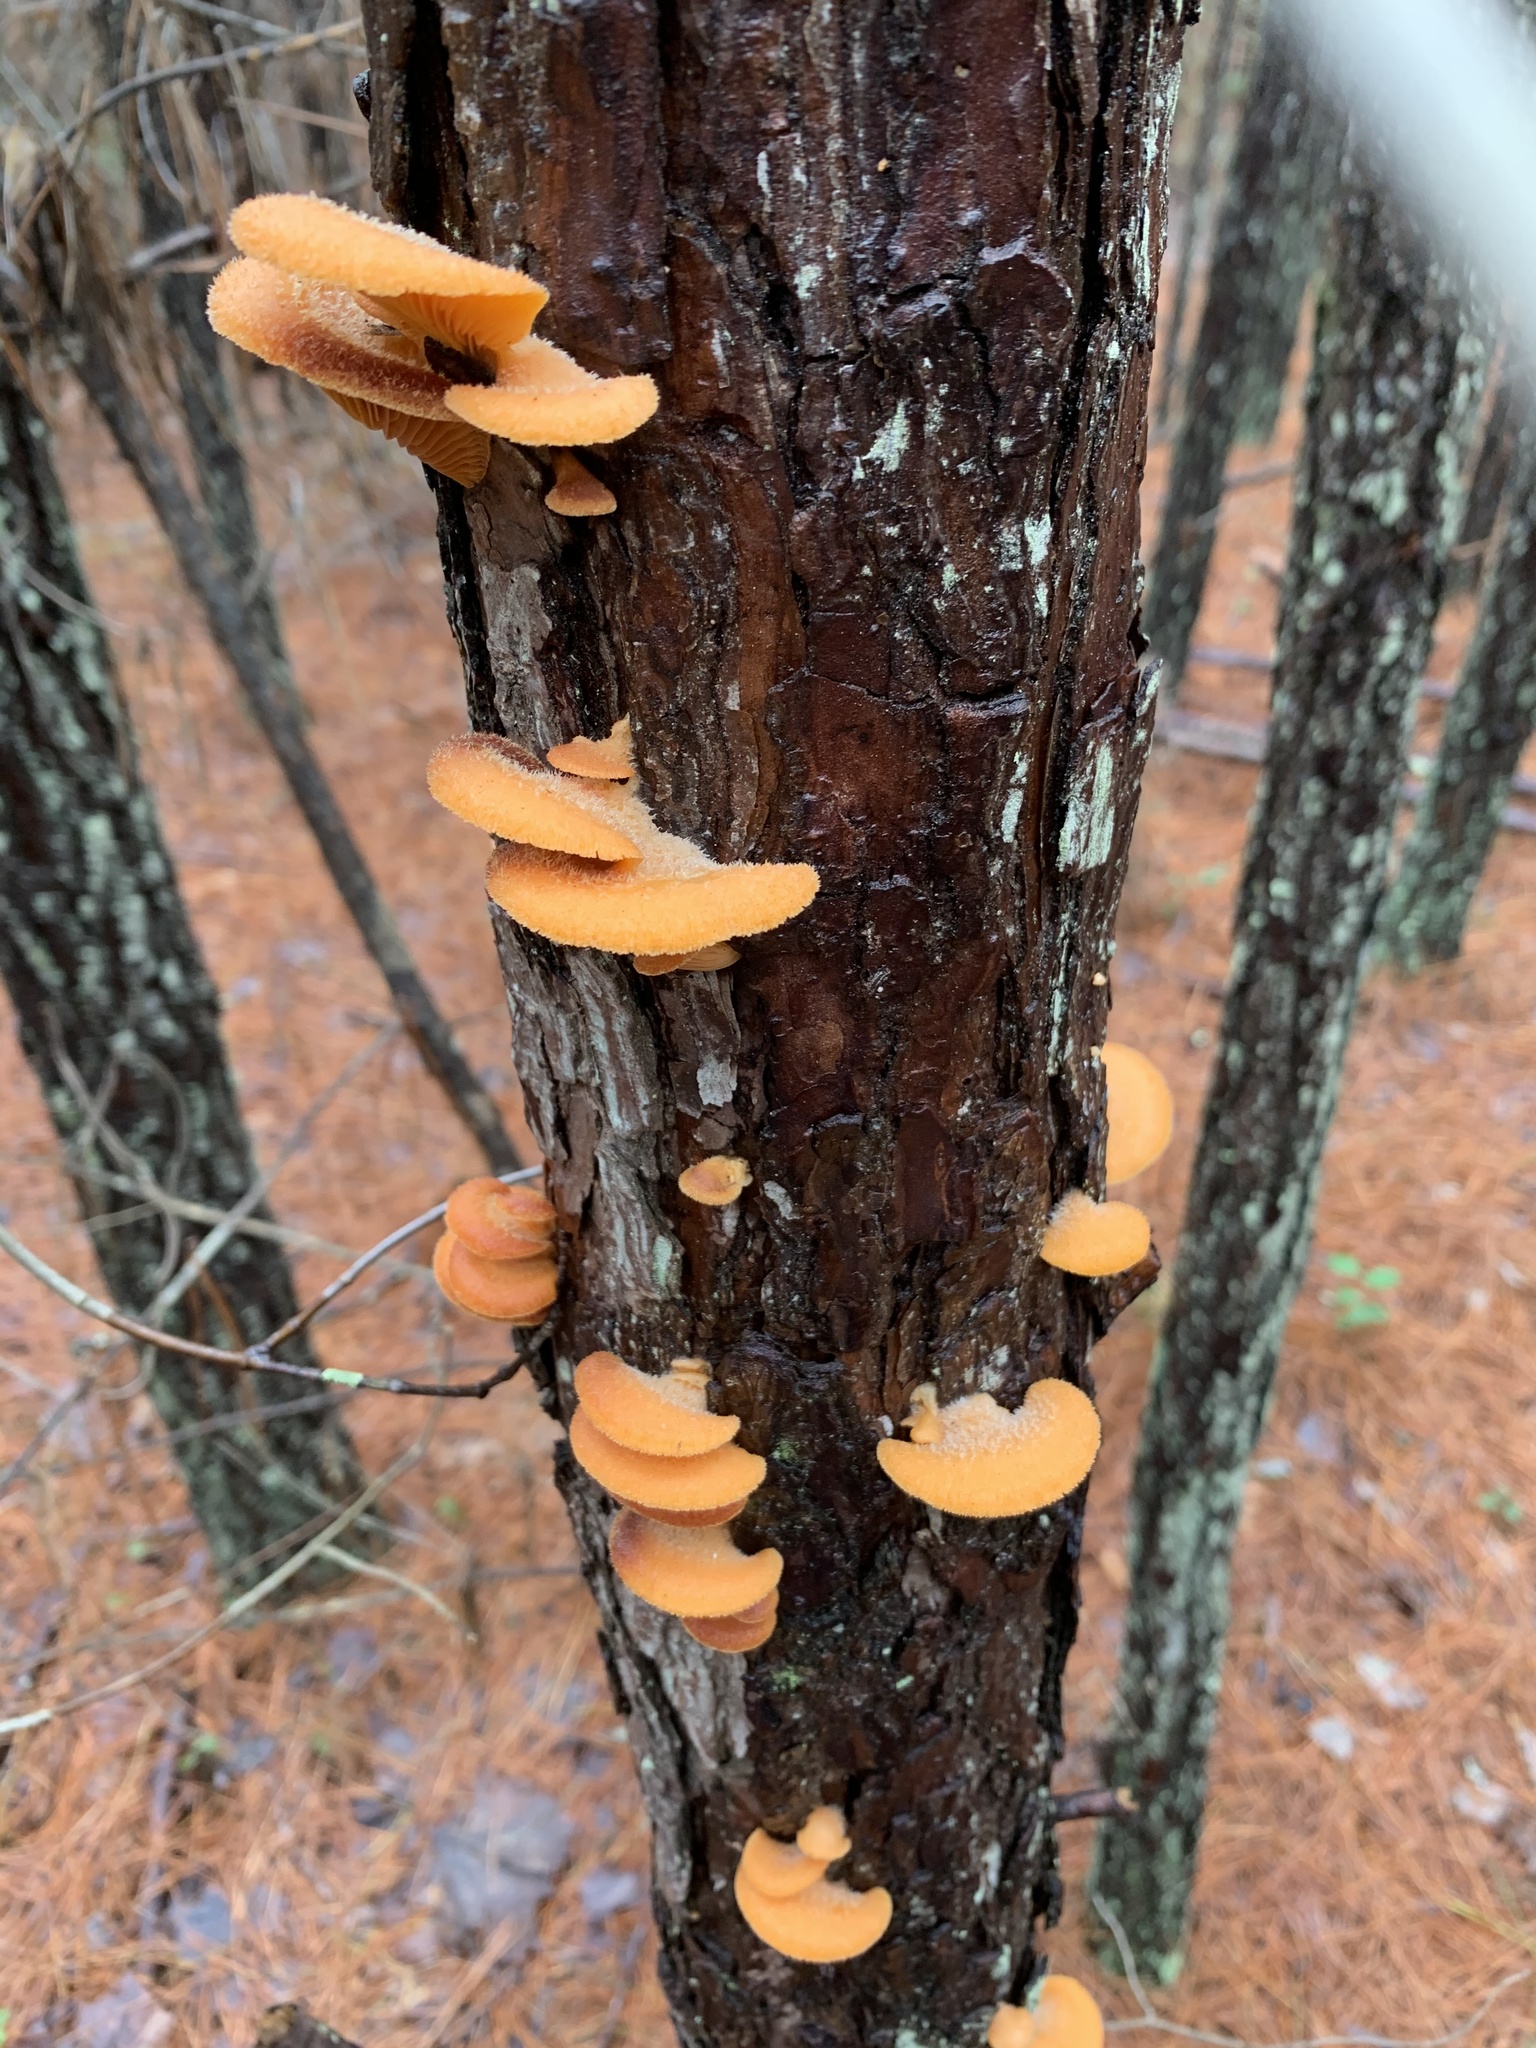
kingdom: Fungi
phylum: Basidiomycota
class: Agaricomycetes
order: Agaricales
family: Phyllotopsidaceae
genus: Phyllotopsis
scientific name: Phyllotopsis nidulans
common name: Orange mock oyster
